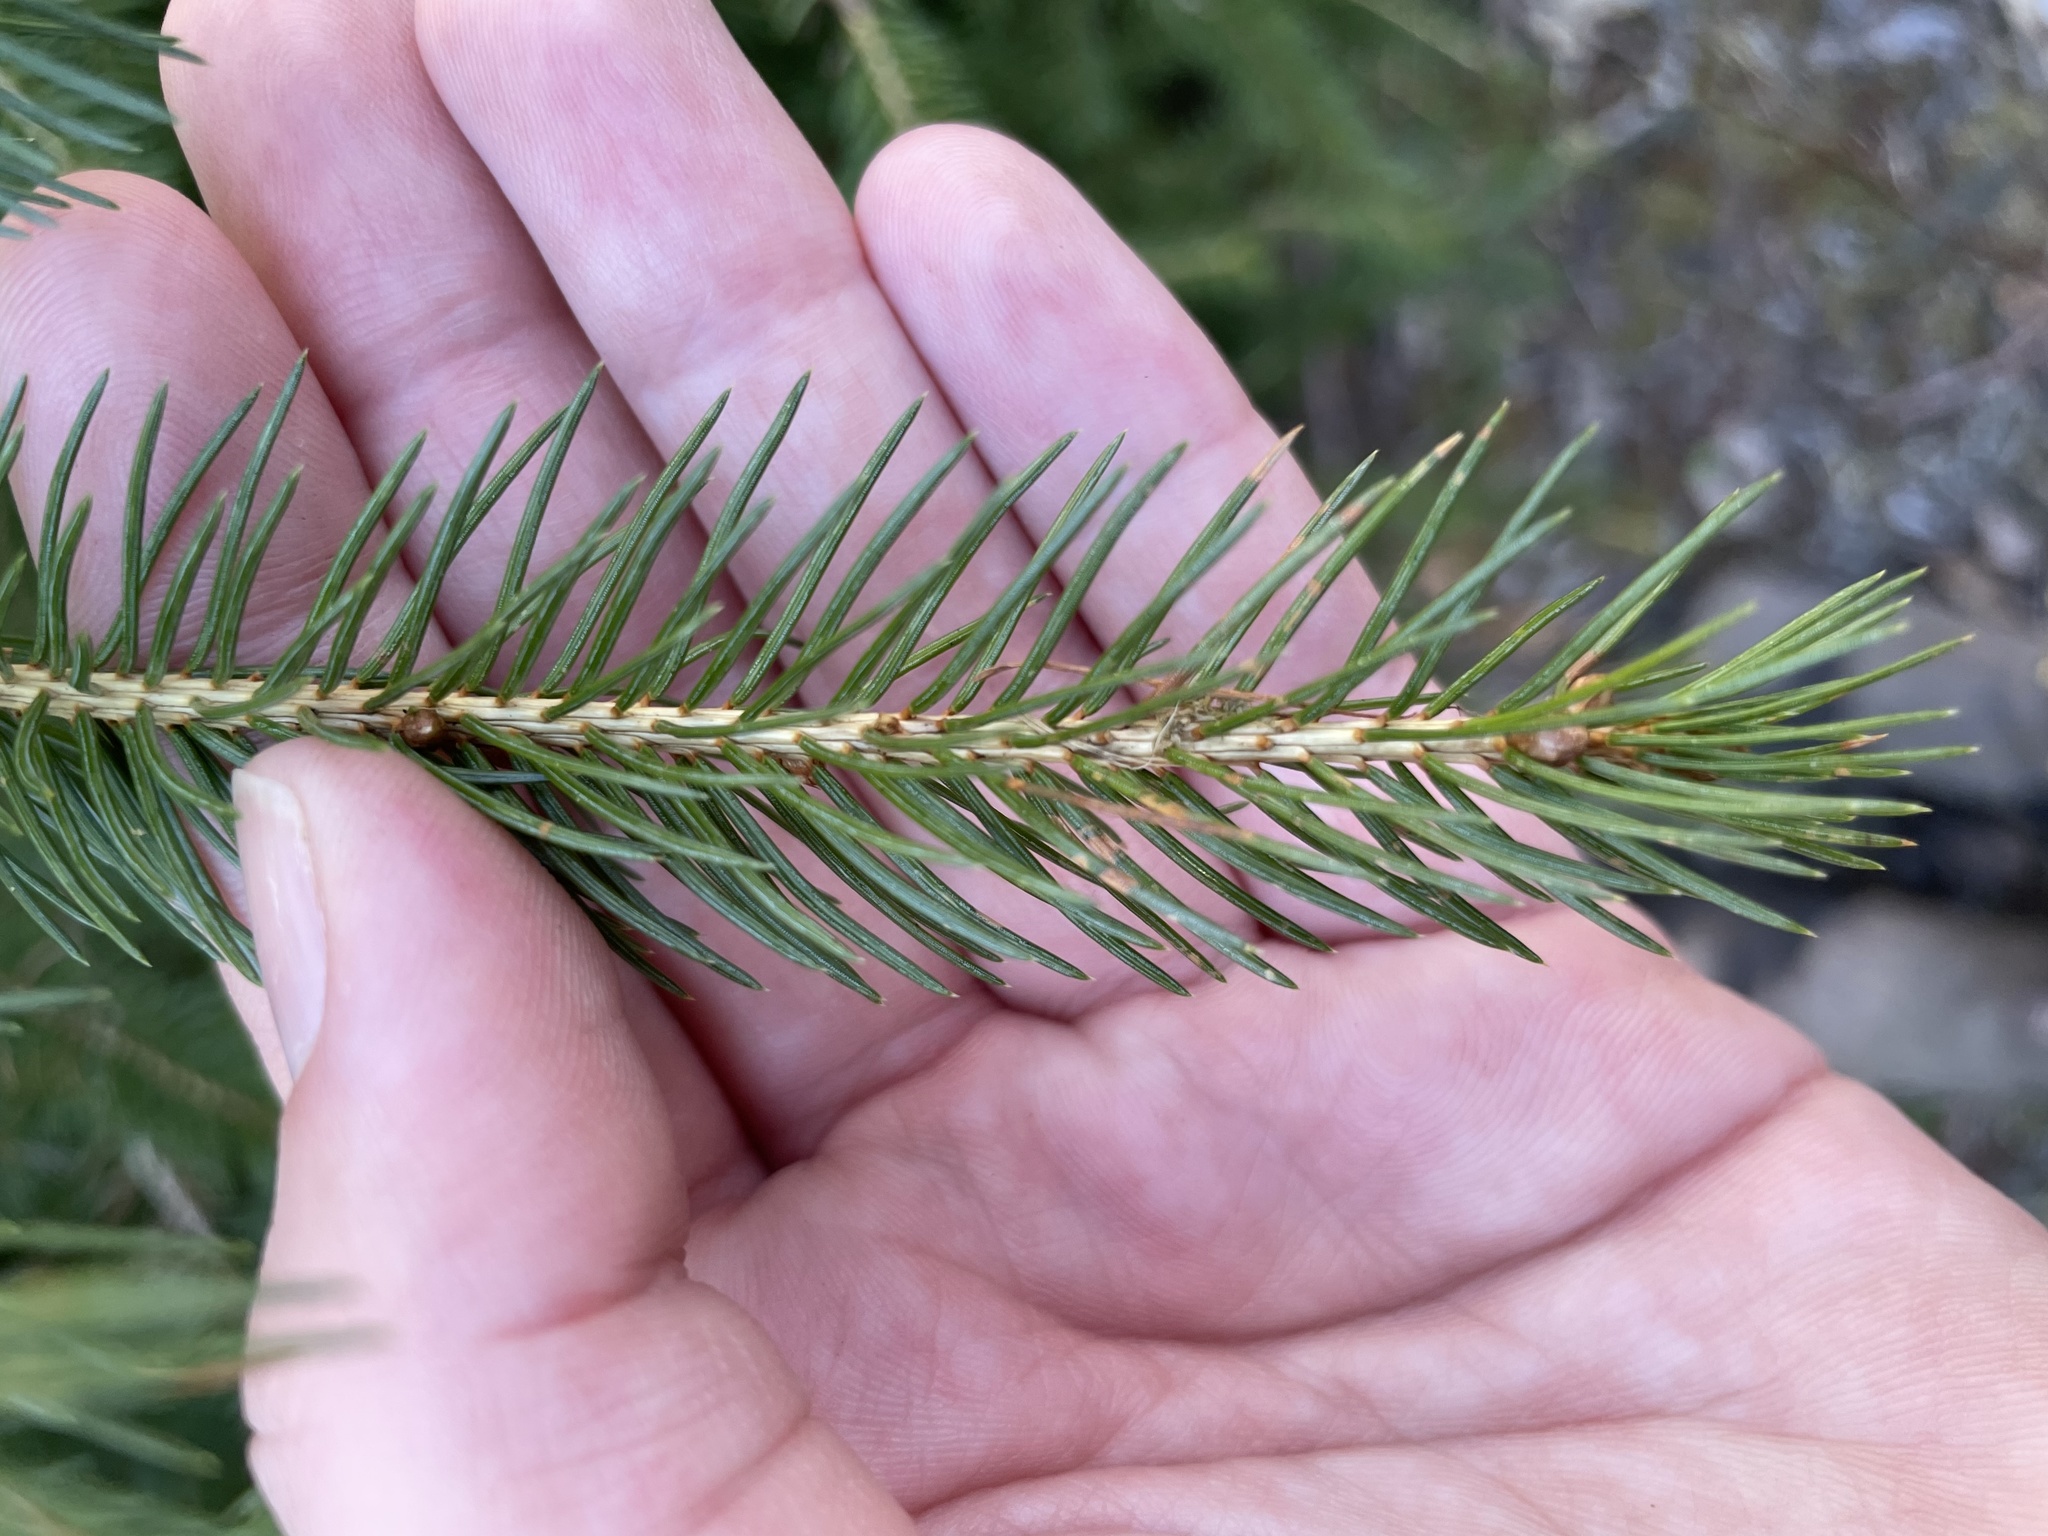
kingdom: Plantae
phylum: Tracheophyta
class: Pinopsida
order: Pinales
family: Pinaceae
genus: Picea
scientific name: Picea glauca
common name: White spruce
